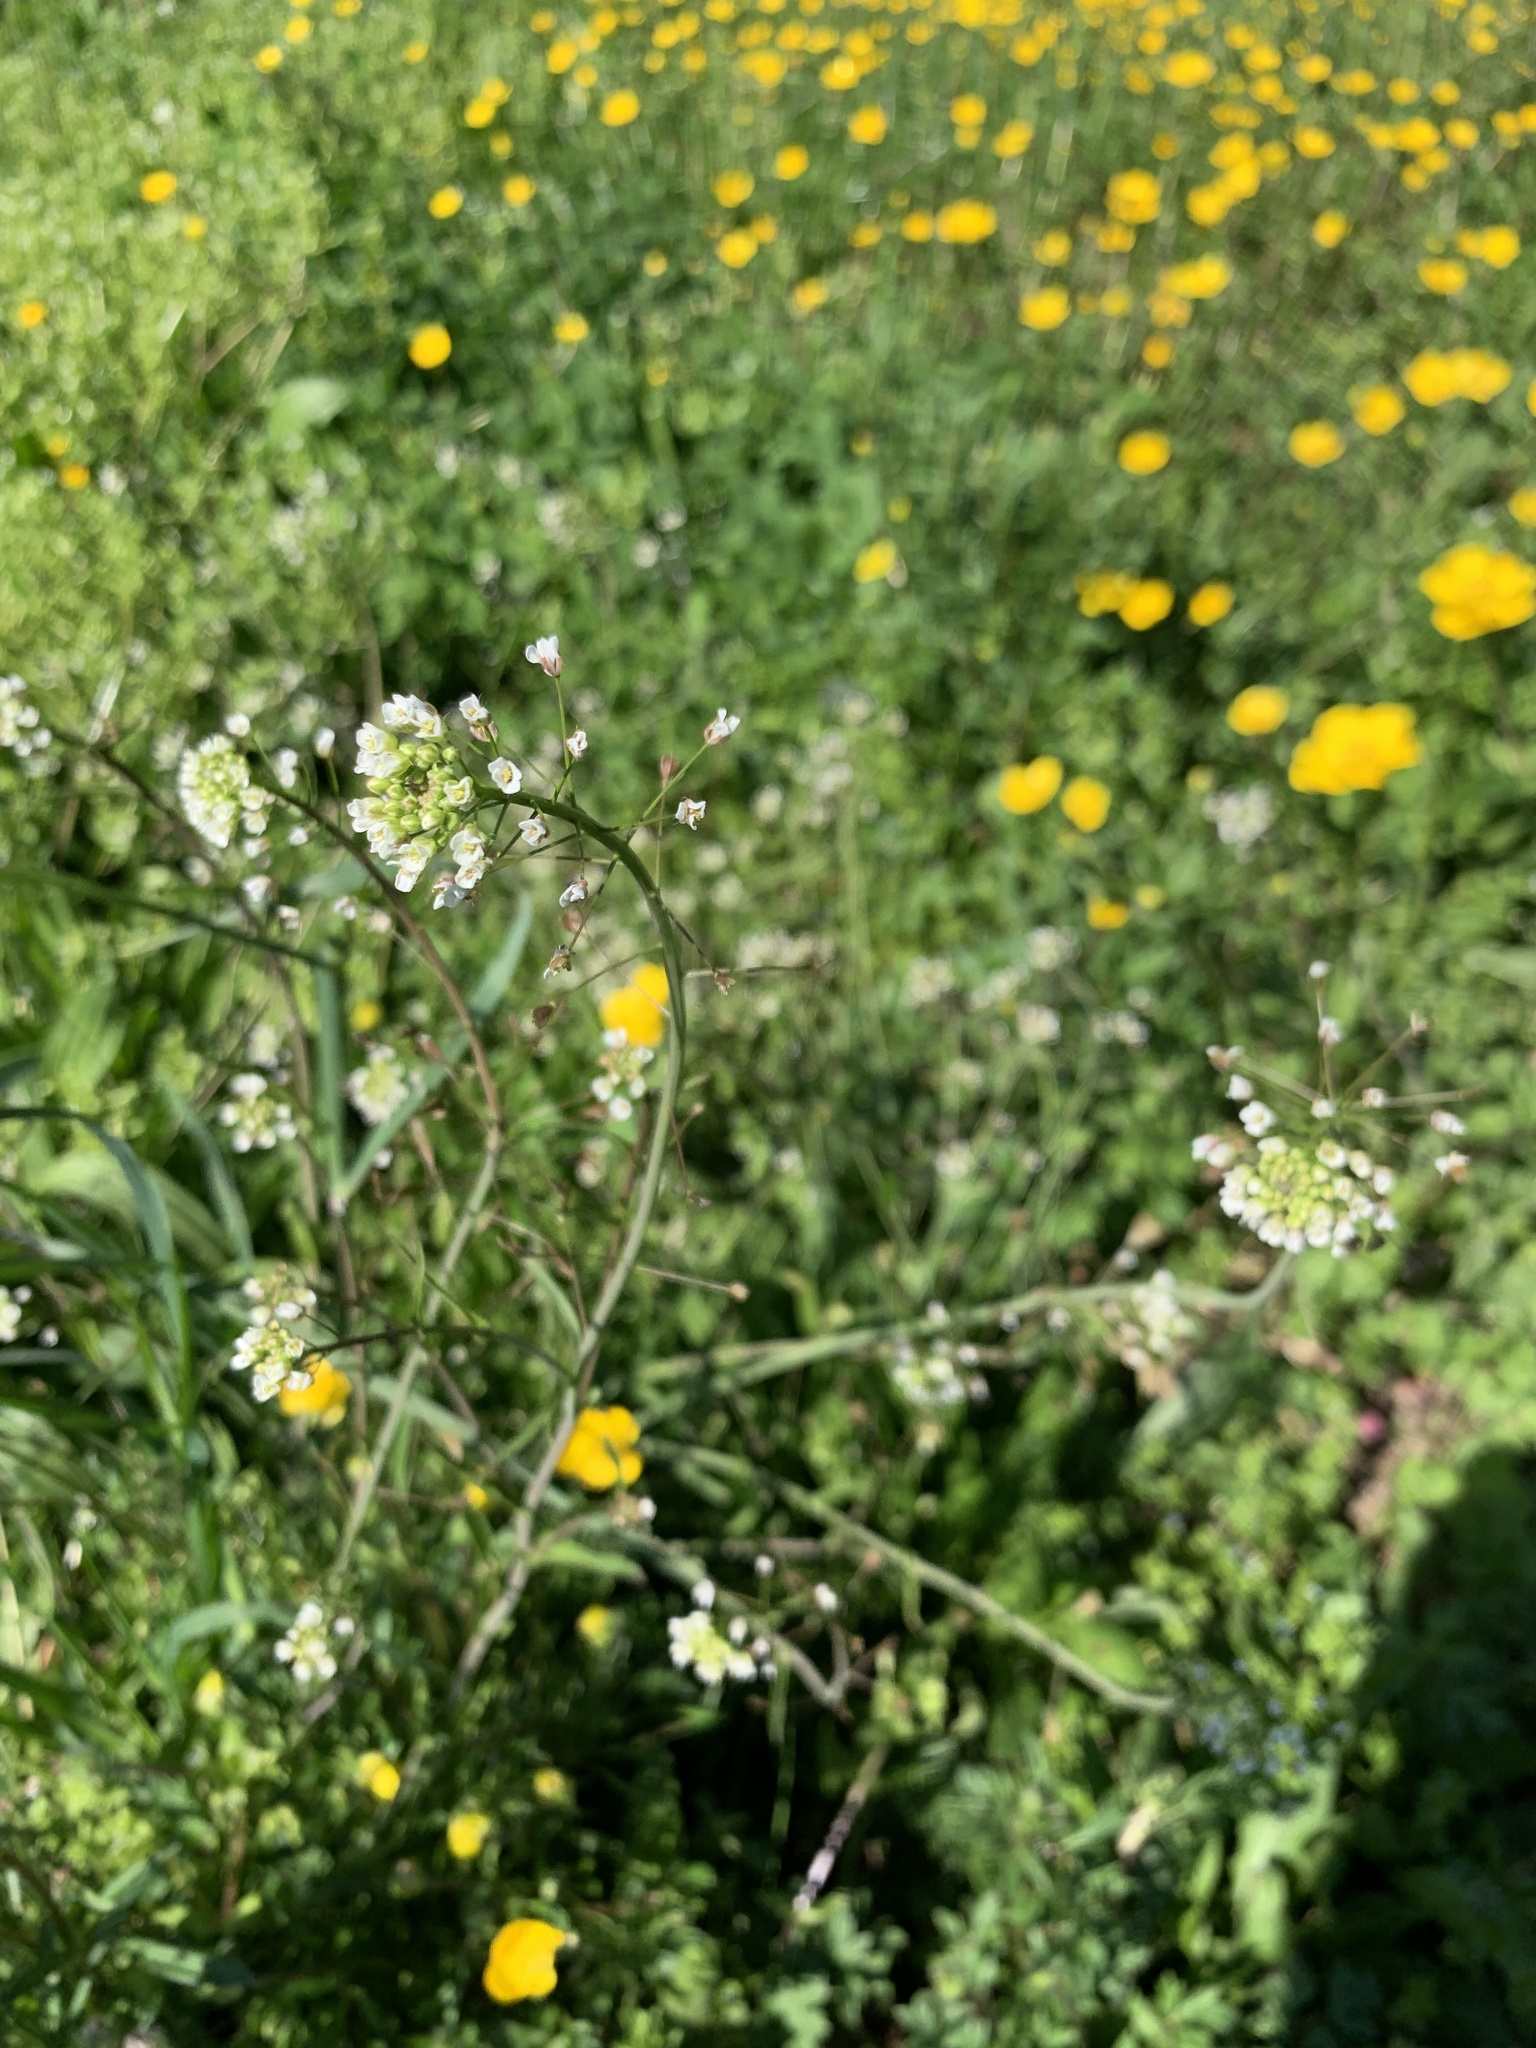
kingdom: Plantae
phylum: Tracheophyta
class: Magnoliopsida
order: Brassicales
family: Brassicaceae
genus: Capsella
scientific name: Capsella bursa-pastoris
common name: Shepherd's purse
